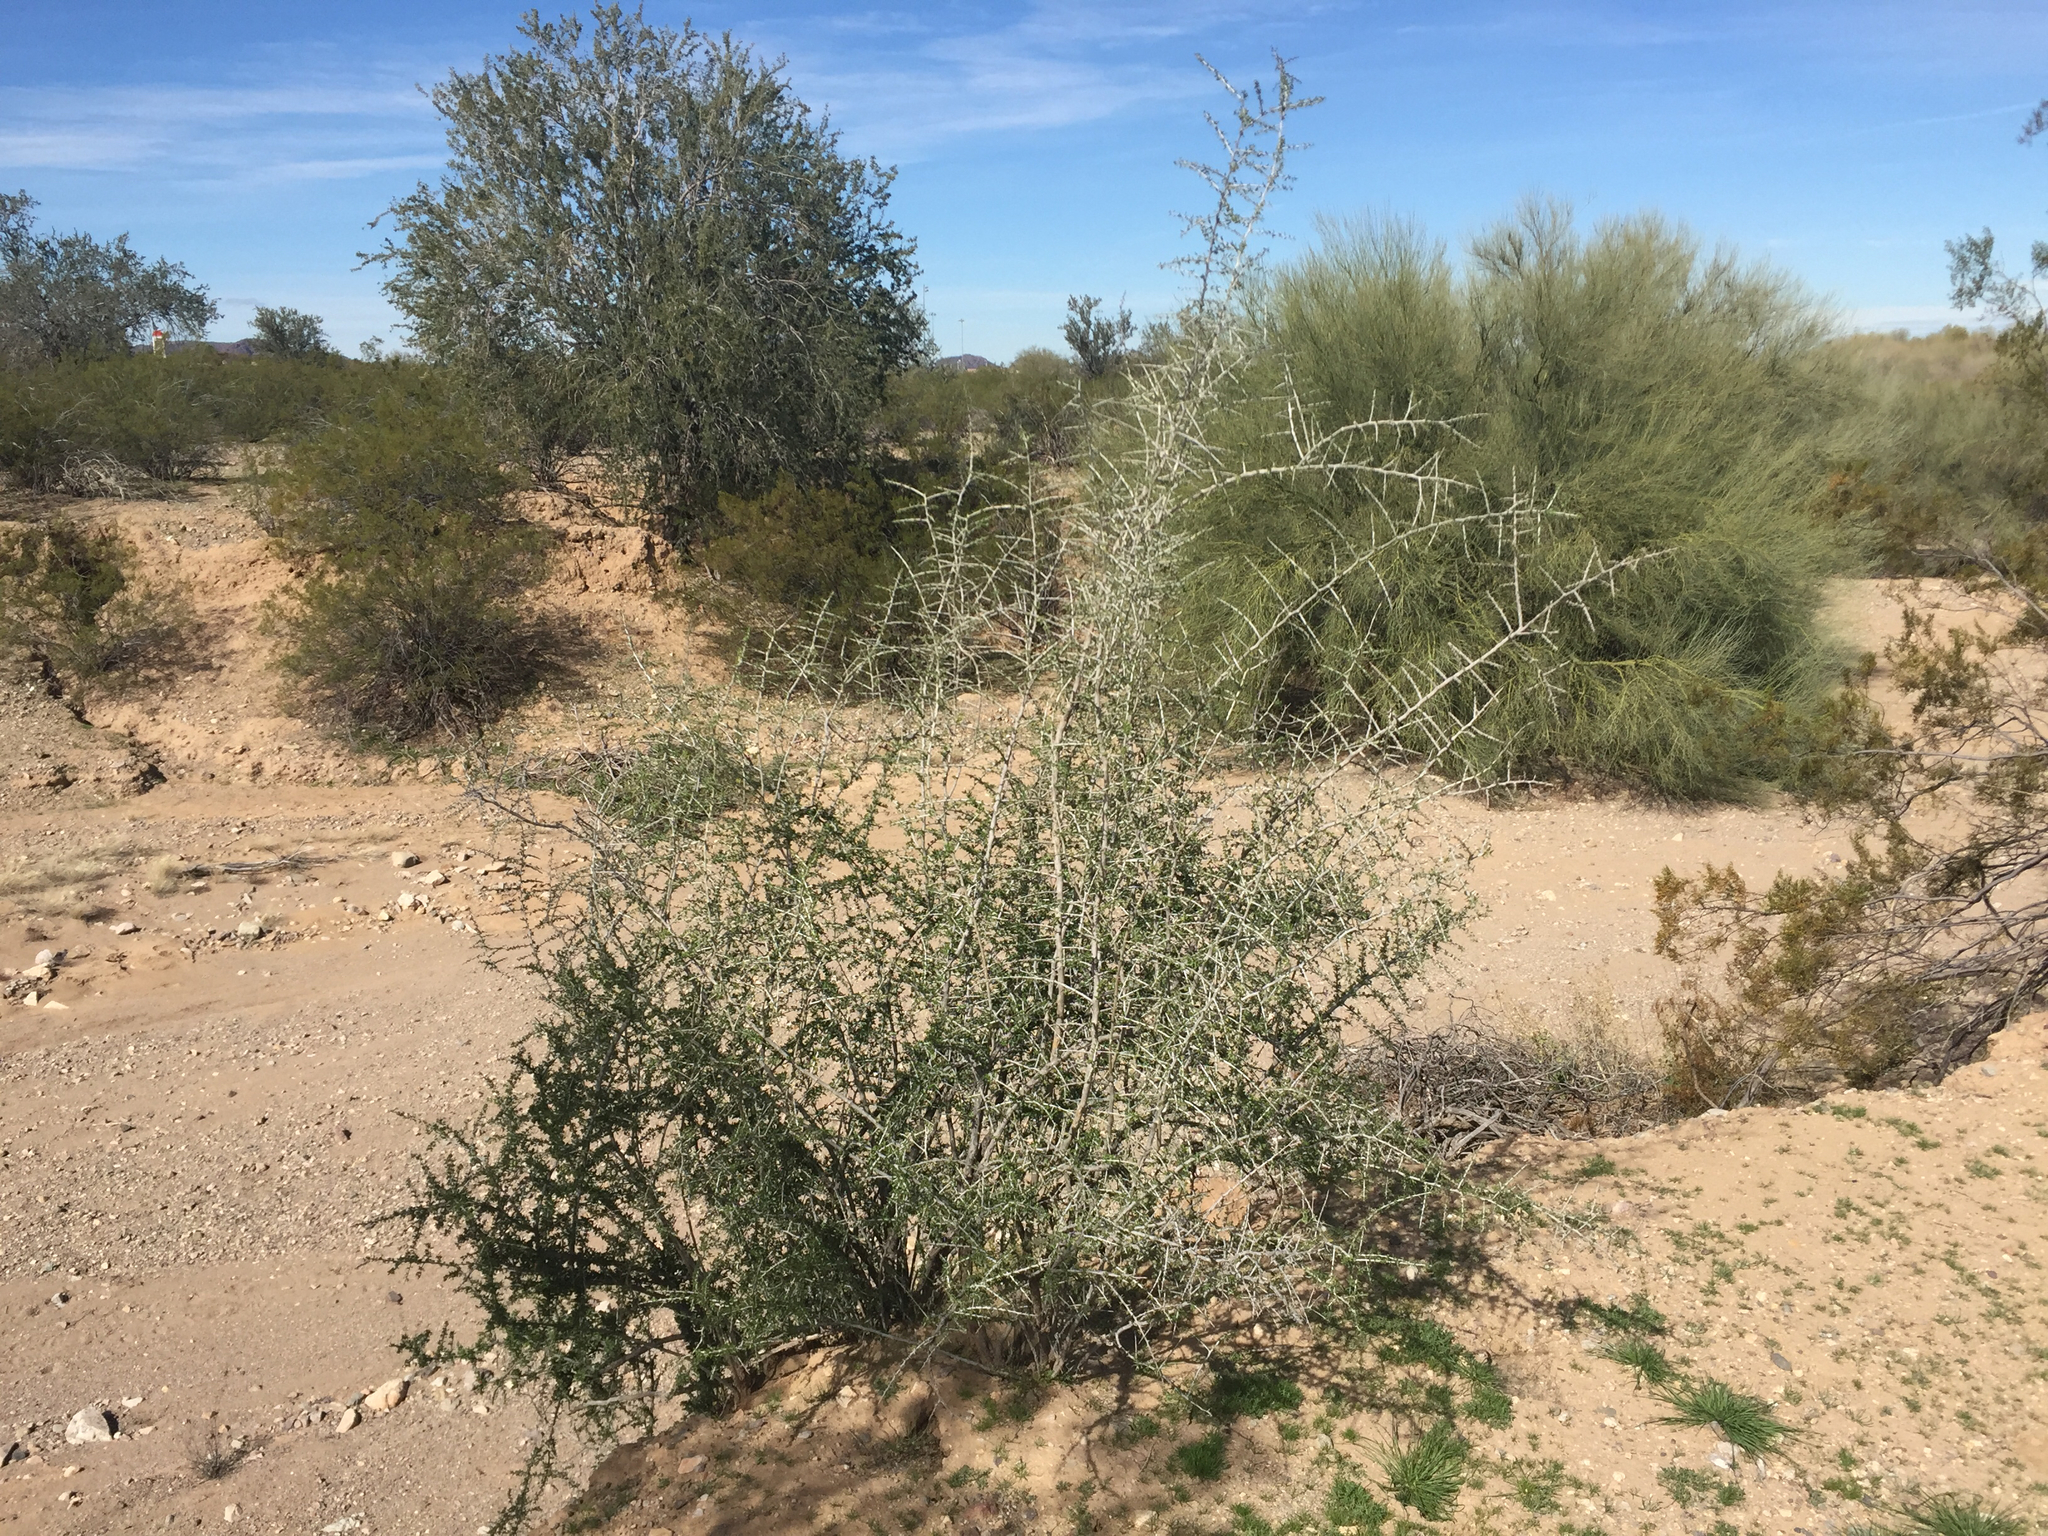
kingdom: Plantae
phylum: Tracheophyta
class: Magnoliopsida
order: Solanales
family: Solanaceae
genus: Lycium
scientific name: Lycium andersonii
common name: Water-jacket
